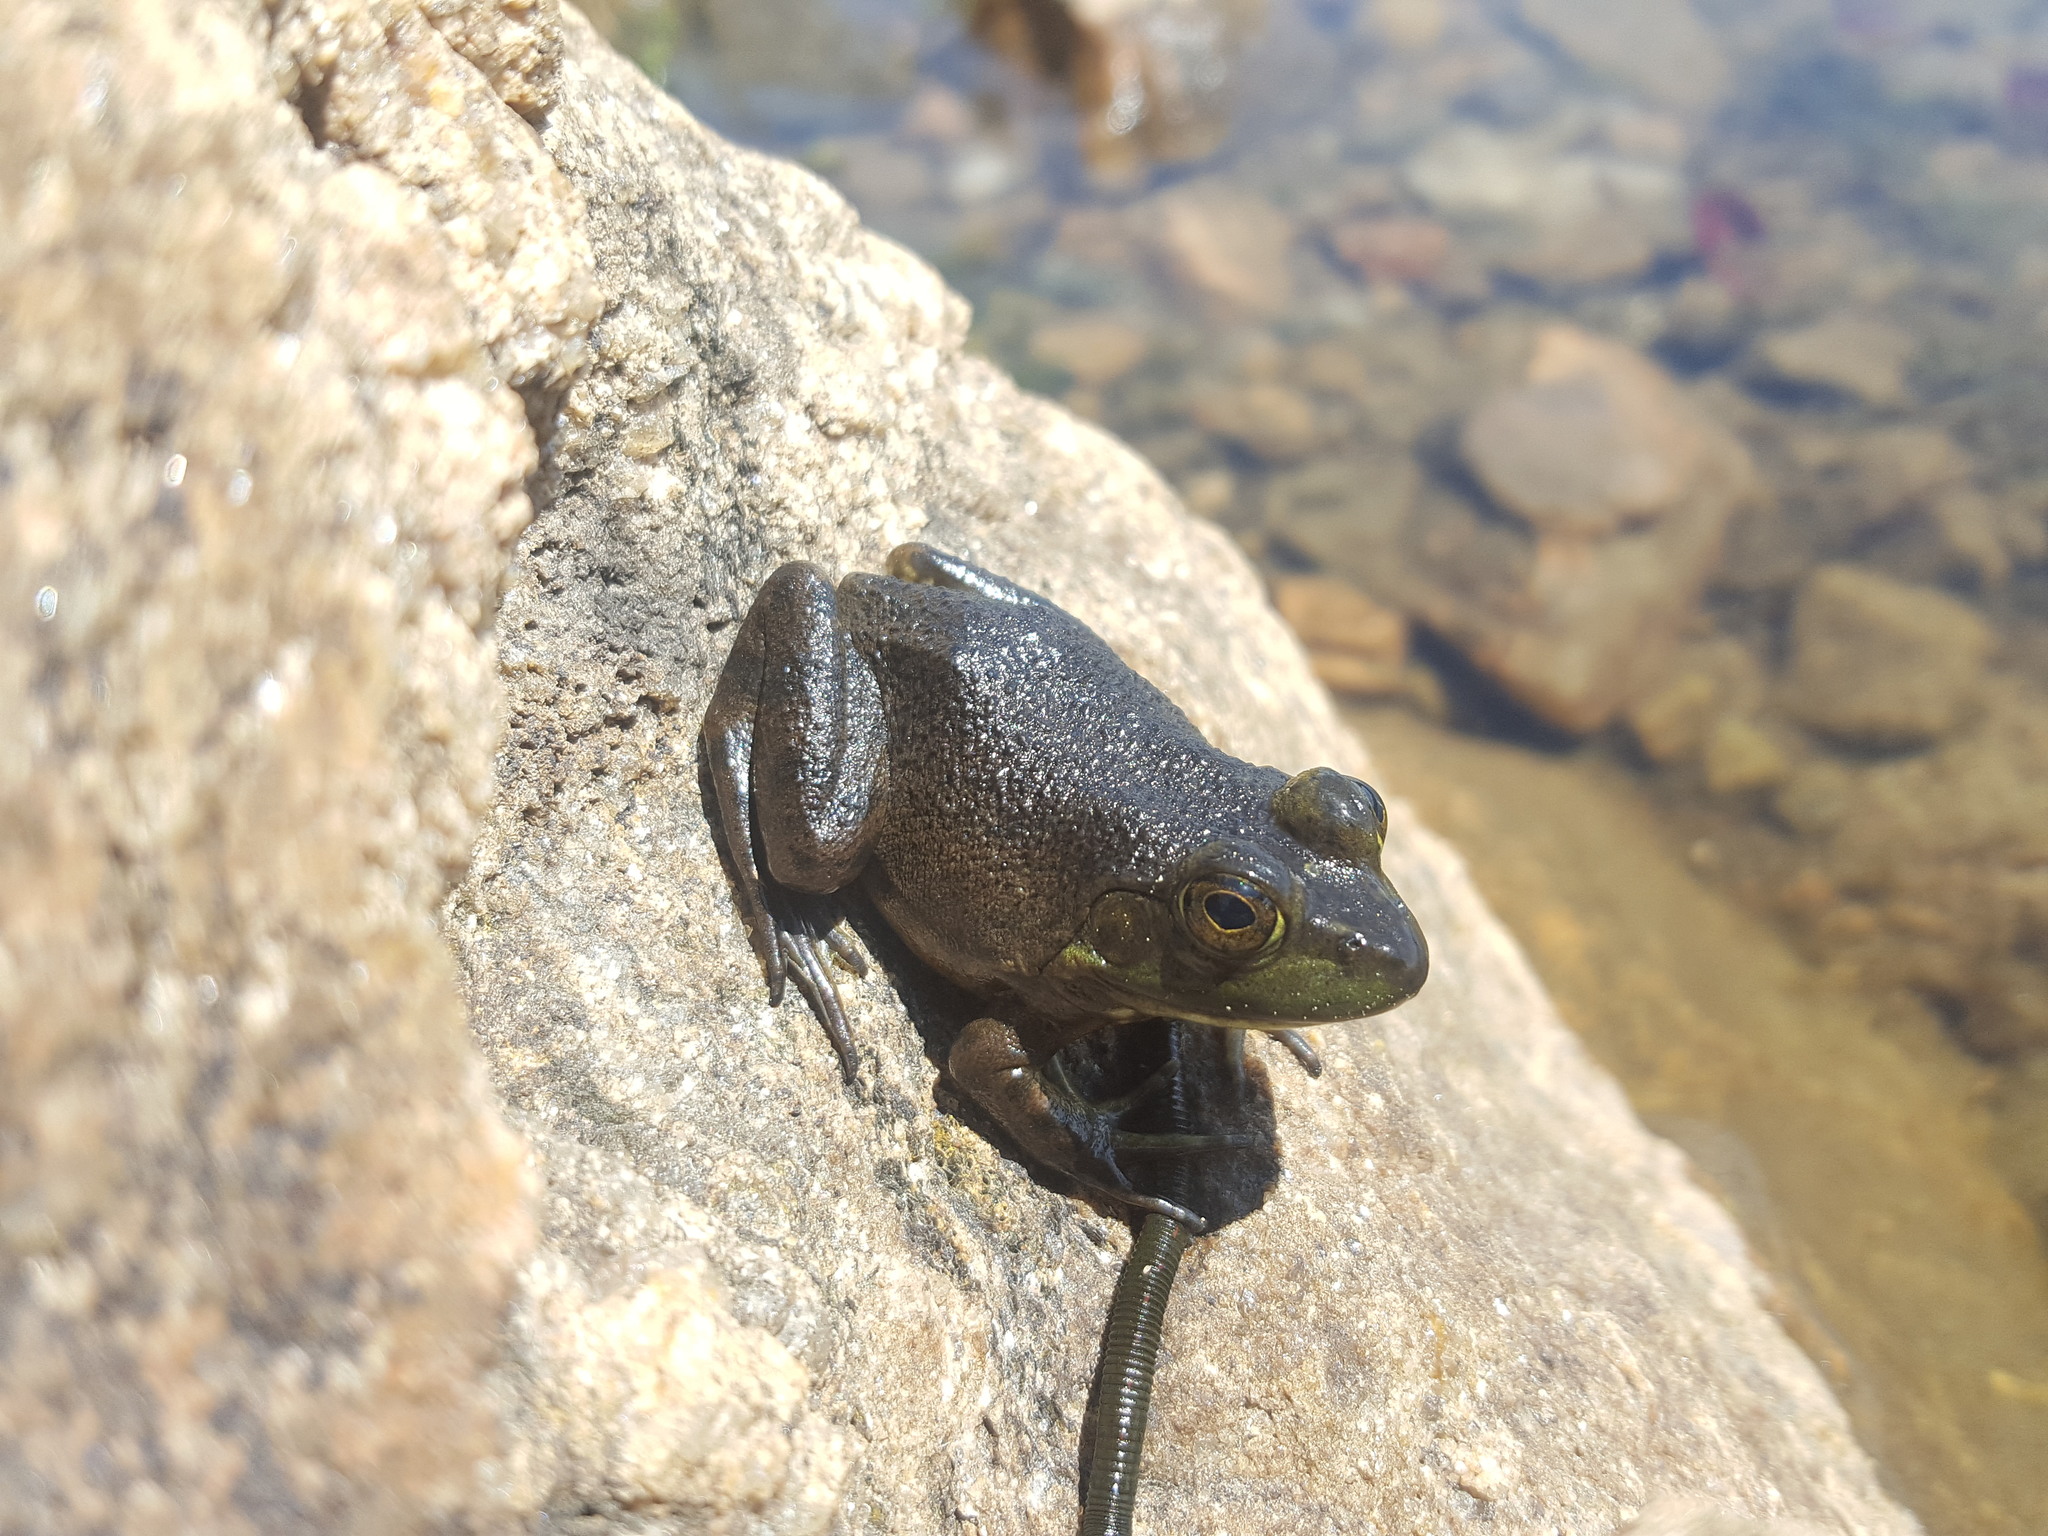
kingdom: Animalia
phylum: Chordata
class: Amphibia
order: Anura
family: Ranidae
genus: Lithobates
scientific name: Lithobates catesbeianus
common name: American bullfrog
